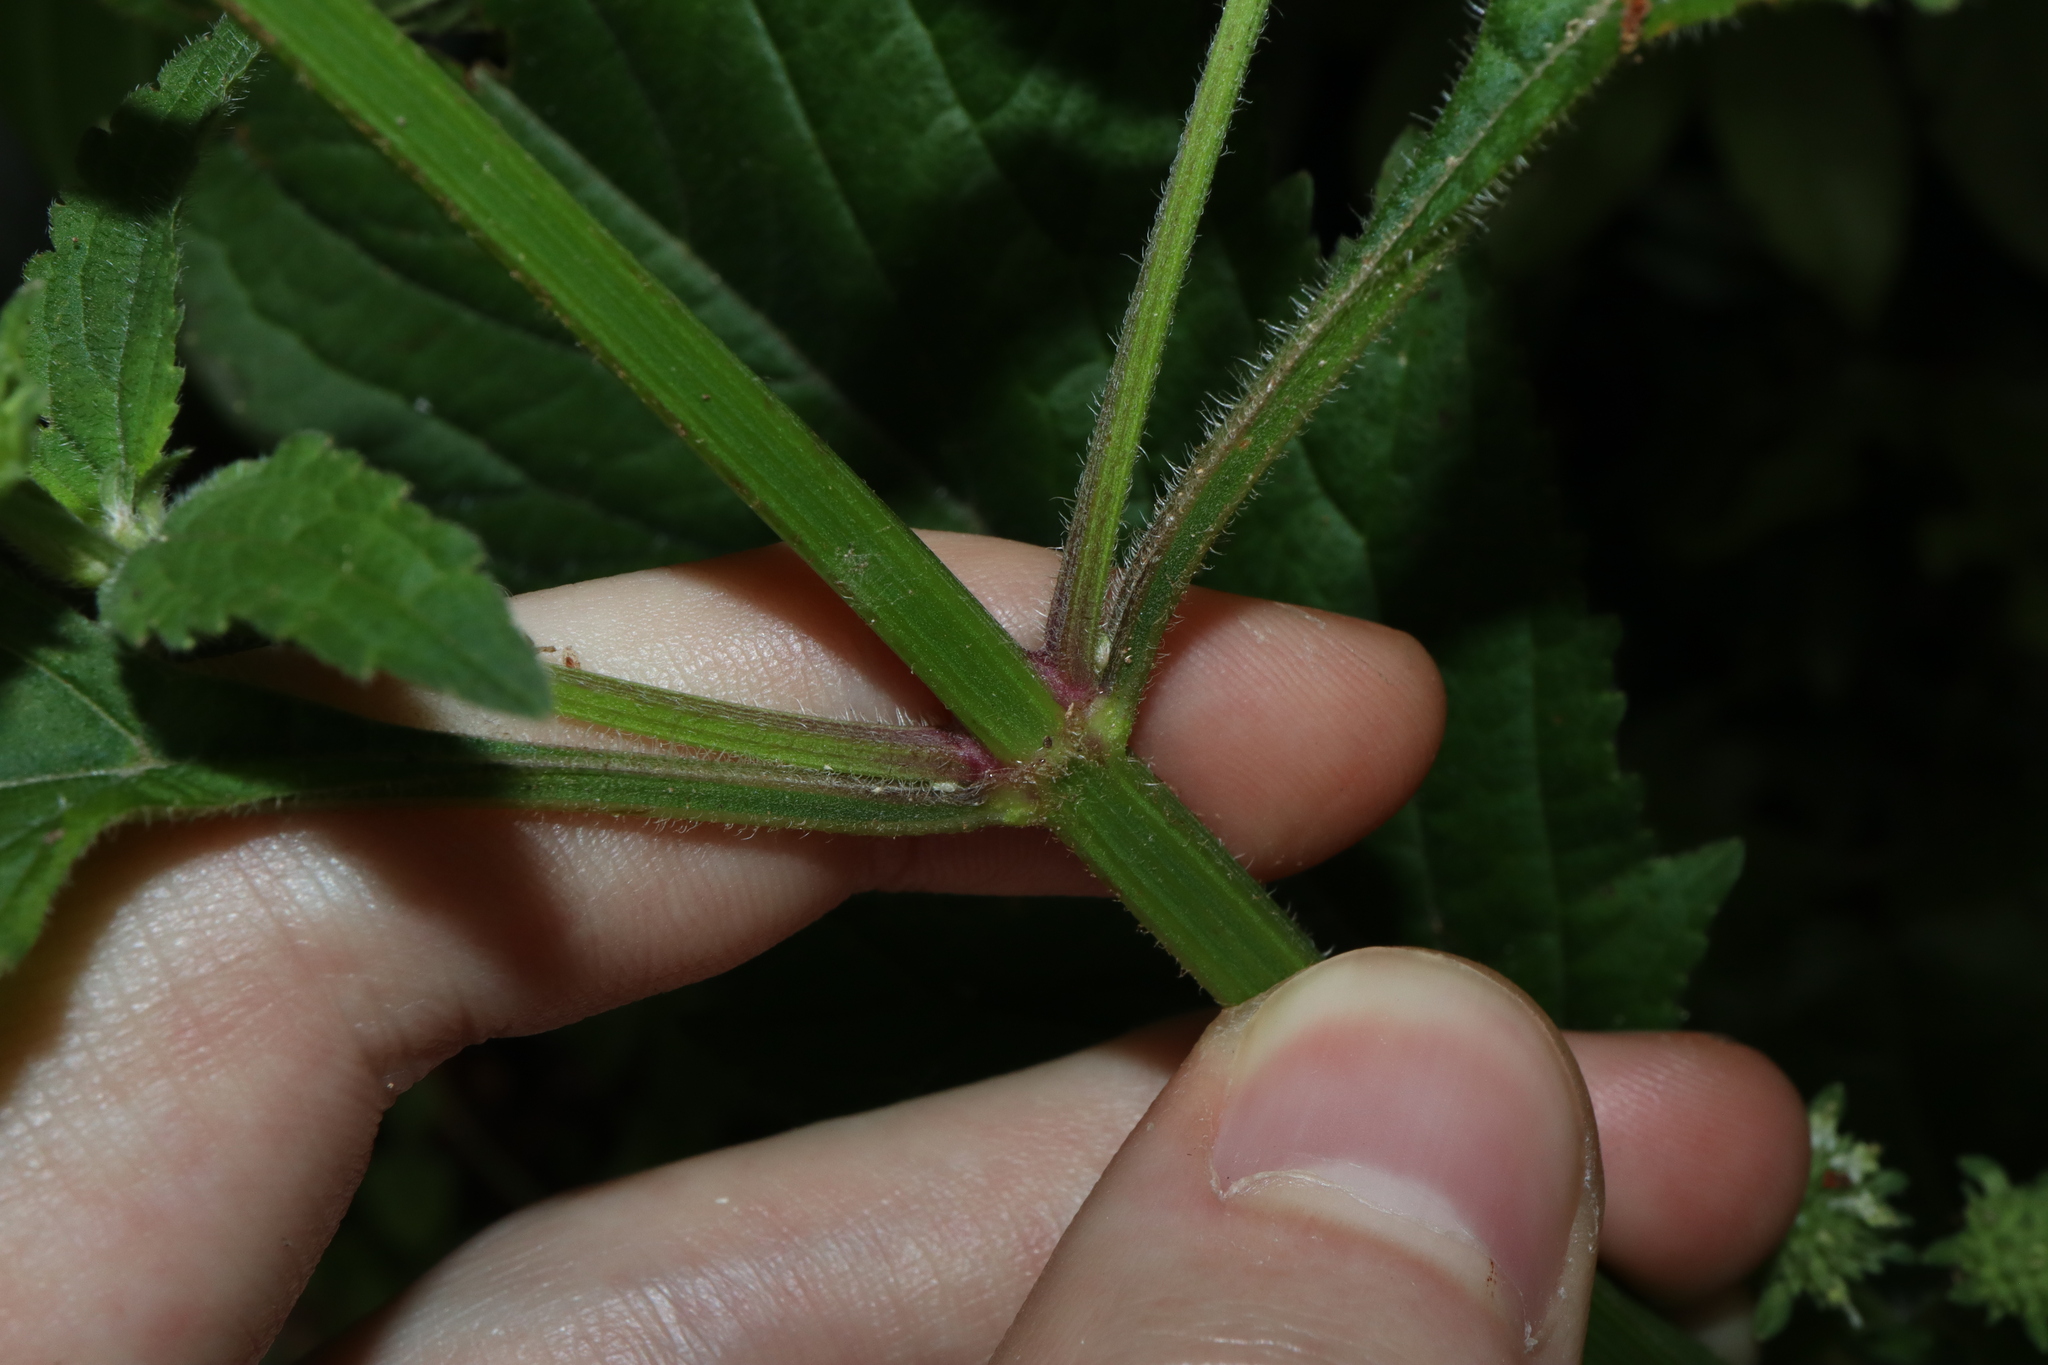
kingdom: Plantae
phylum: Tracheophyta
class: Magnoliopsida
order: Lamiales
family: Lamiaceae
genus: Hyptis
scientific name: Hyptis capitata
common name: False ironwort
